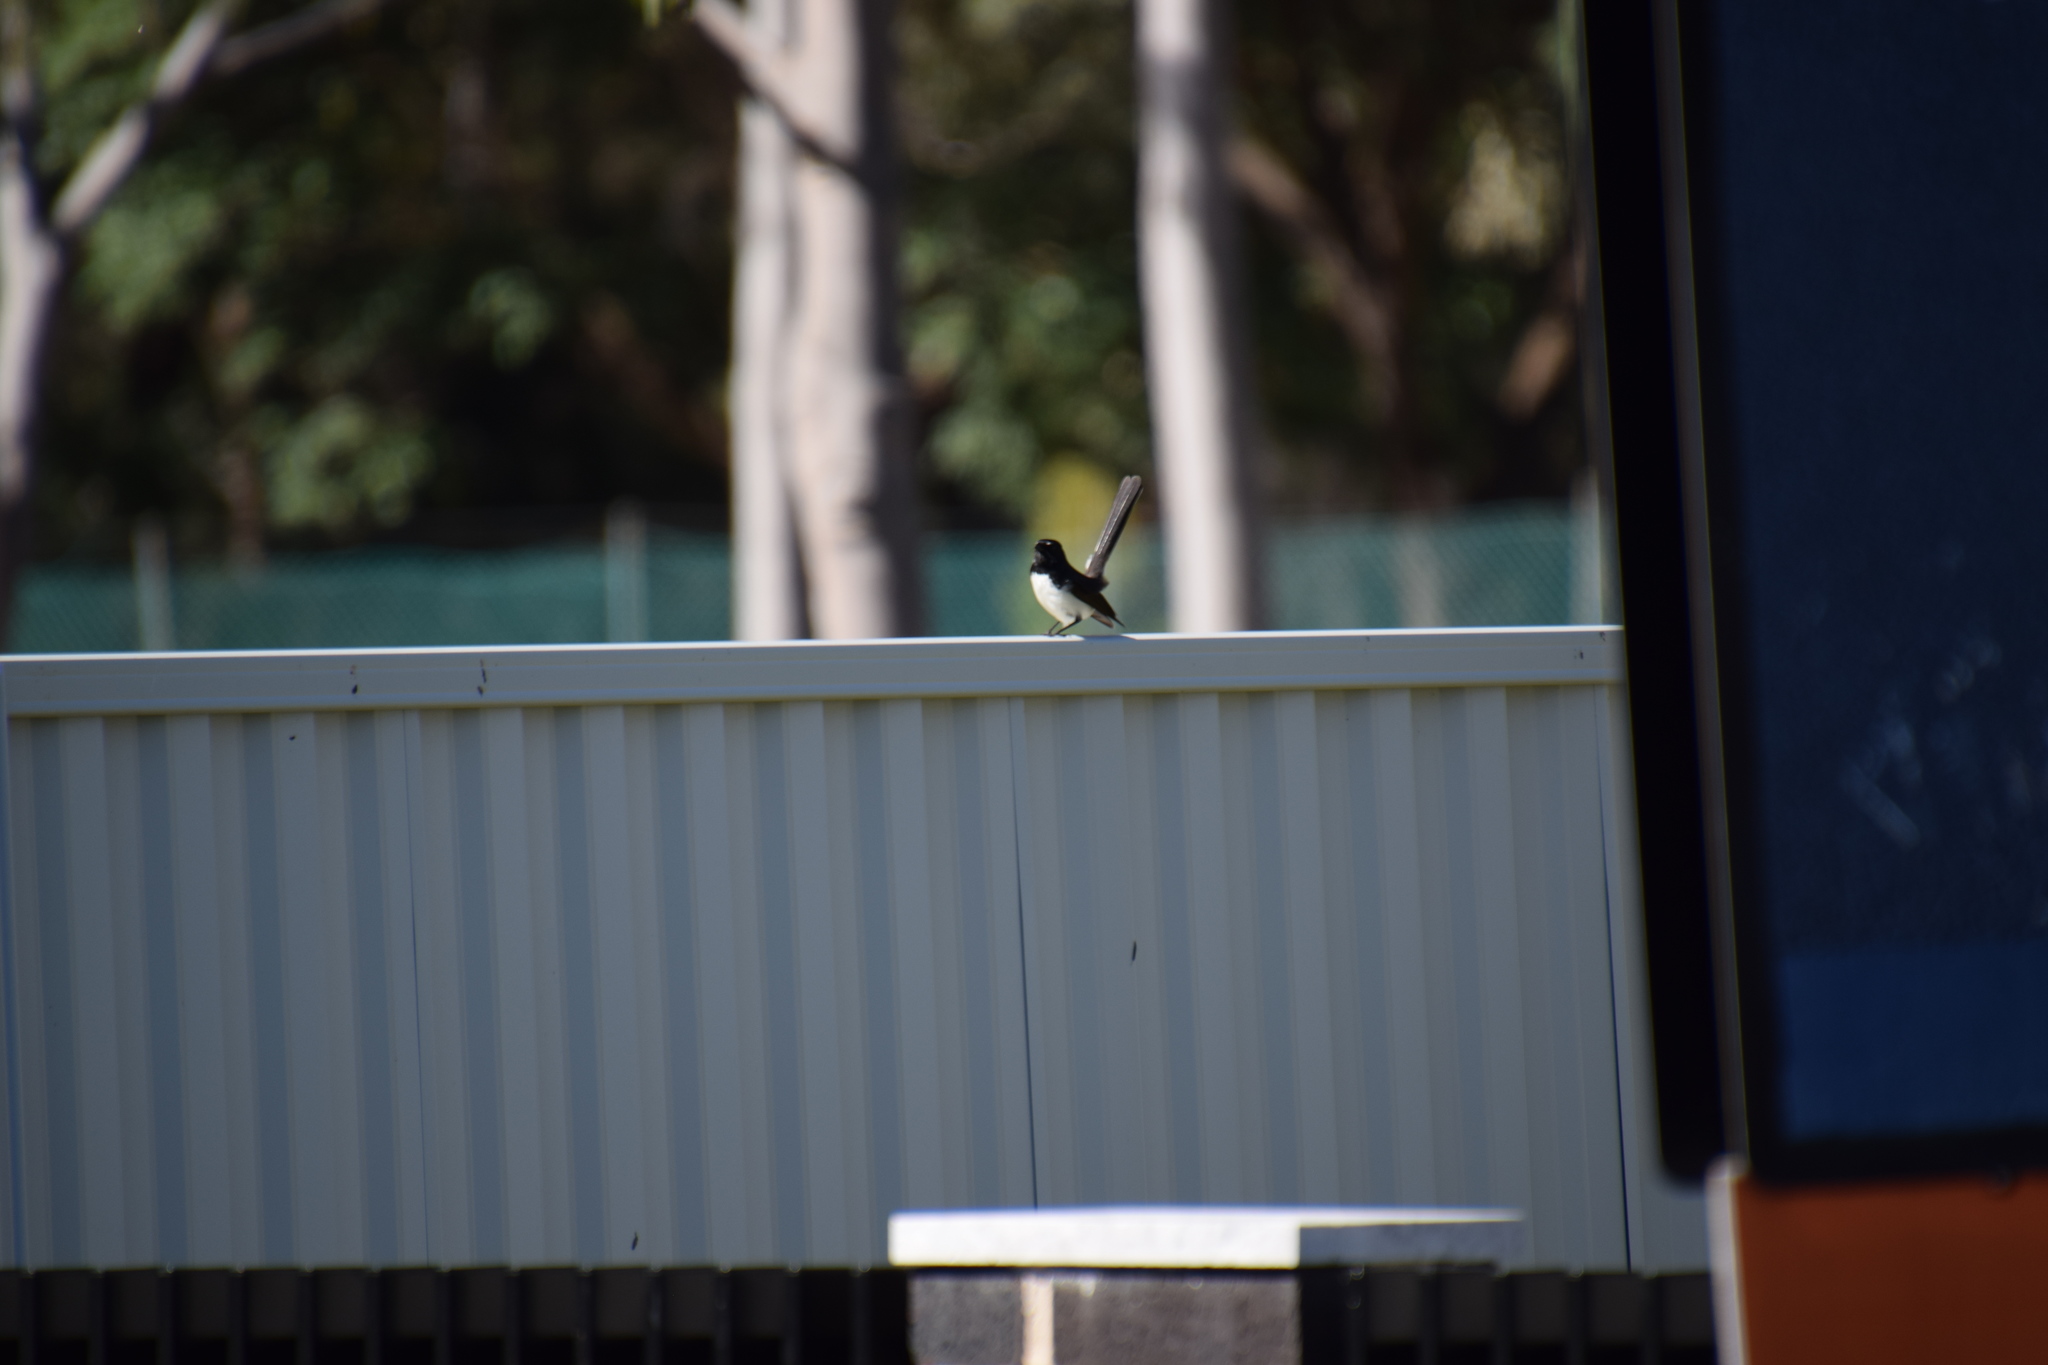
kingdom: Animalia
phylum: Chordata
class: Aves
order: Passeriformes
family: Rhipiduridae
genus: Rhipidura
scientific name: Rhipidura leucophrys
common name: Willie wagtail
